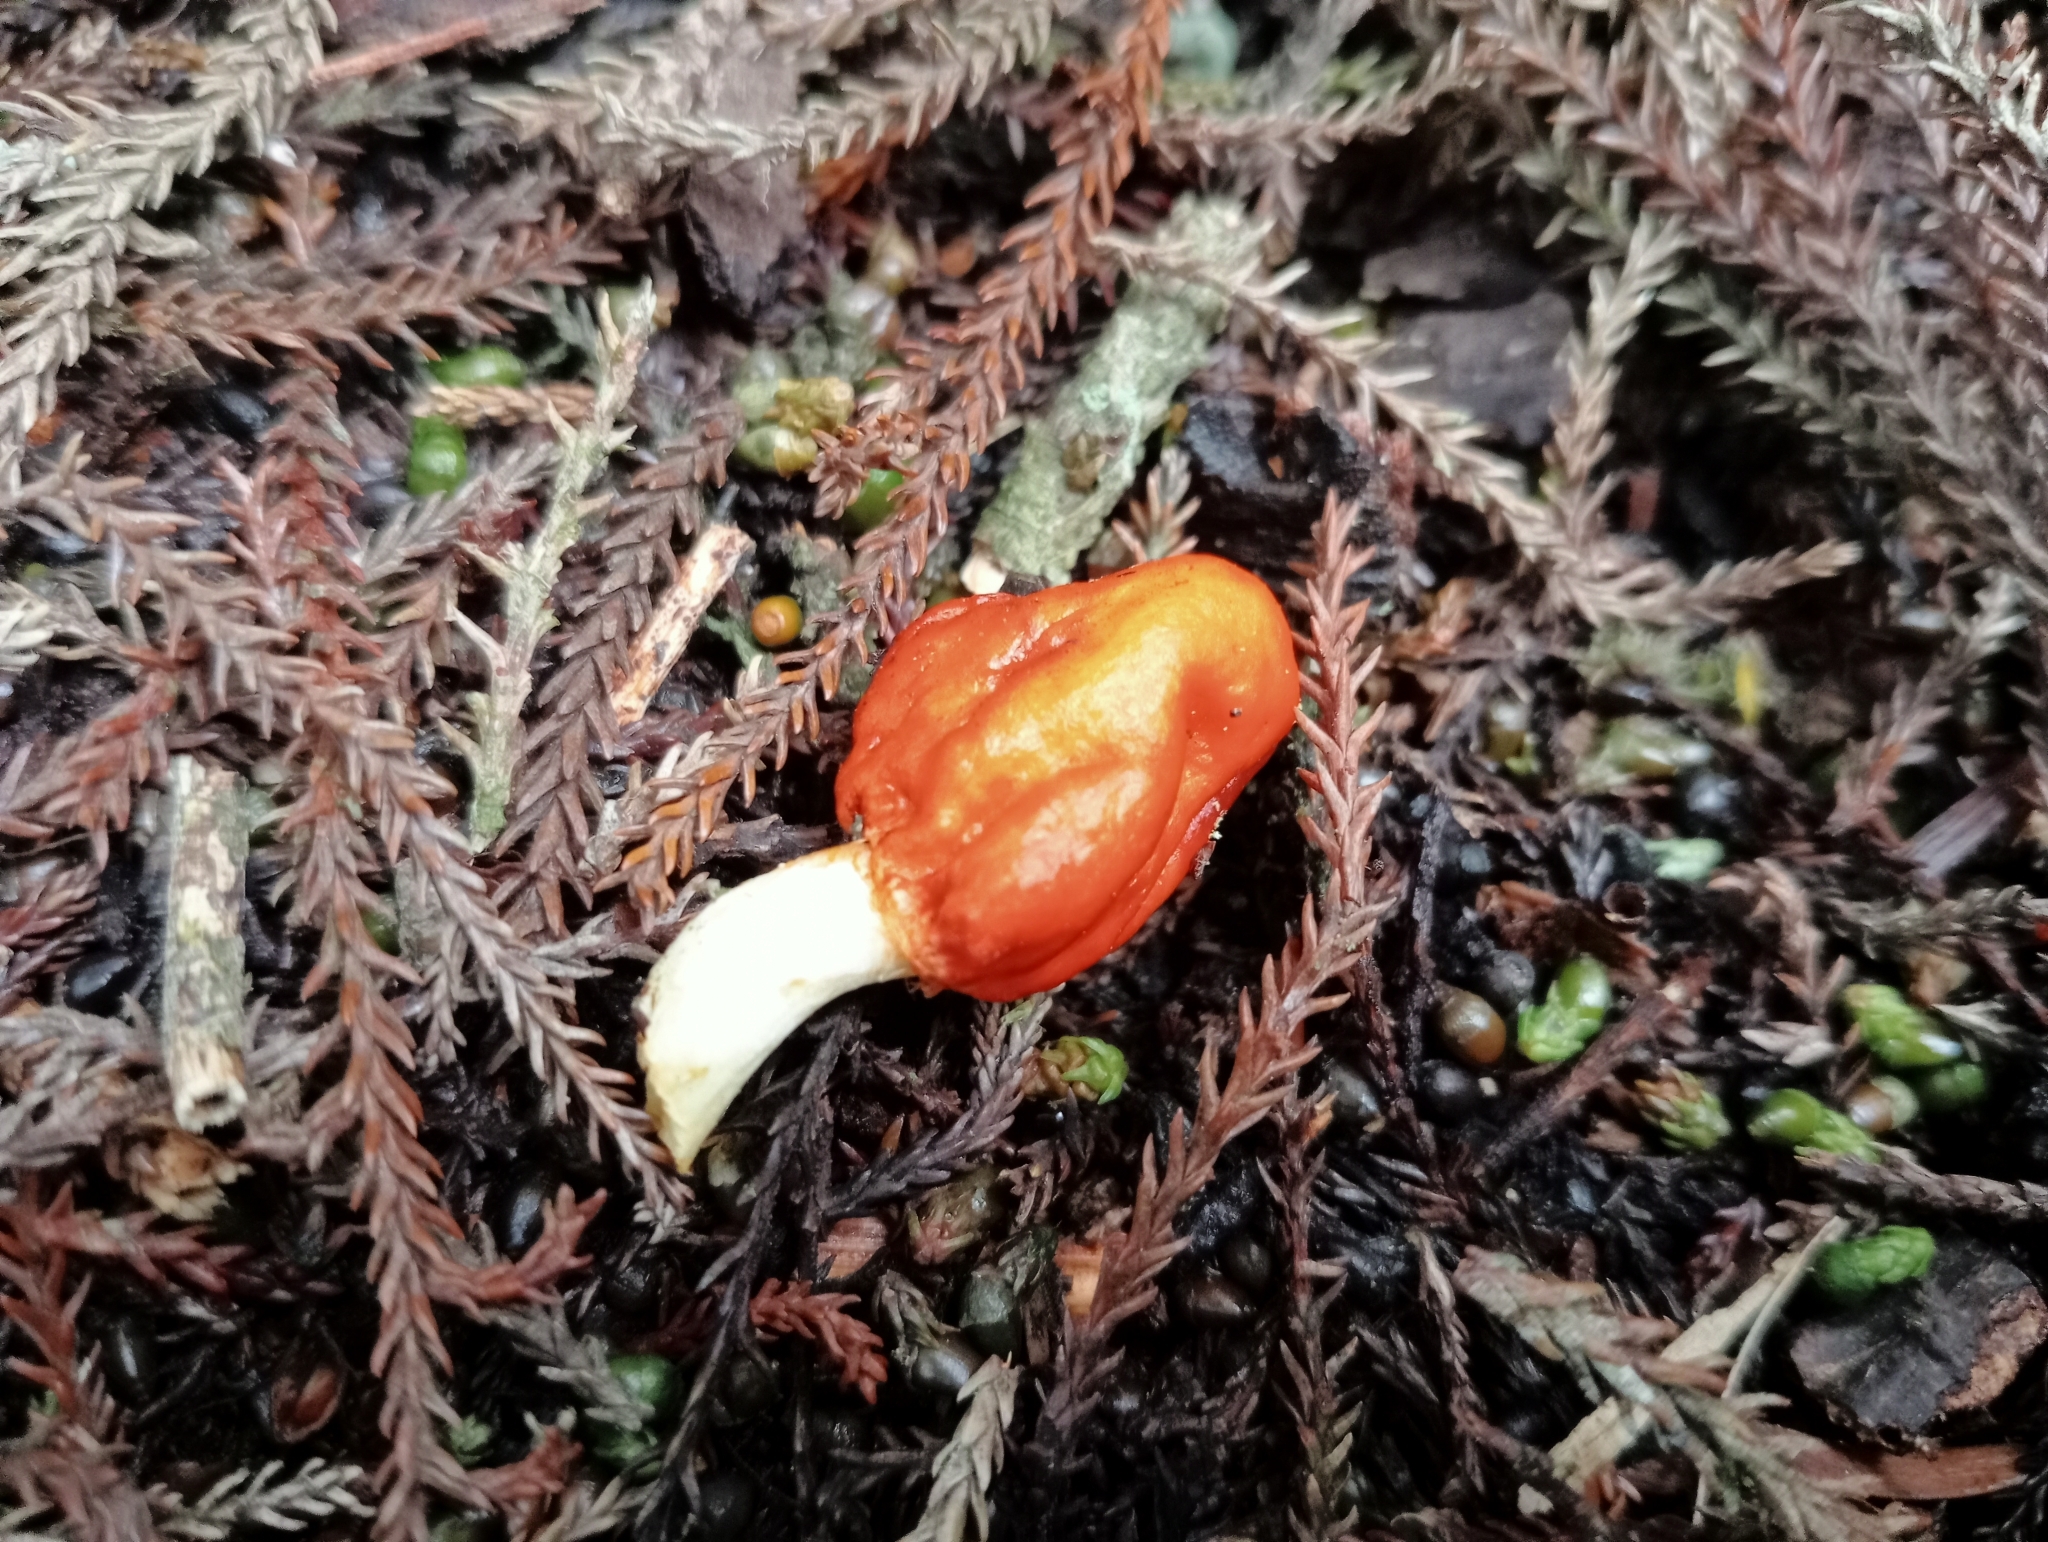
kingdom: Fungi
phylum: Basidiomycota
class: Agaricomycetes
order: Agaricales
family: Strophariaceae
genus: Leratiomyces
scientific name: Leratiomyces erythrocephalus
